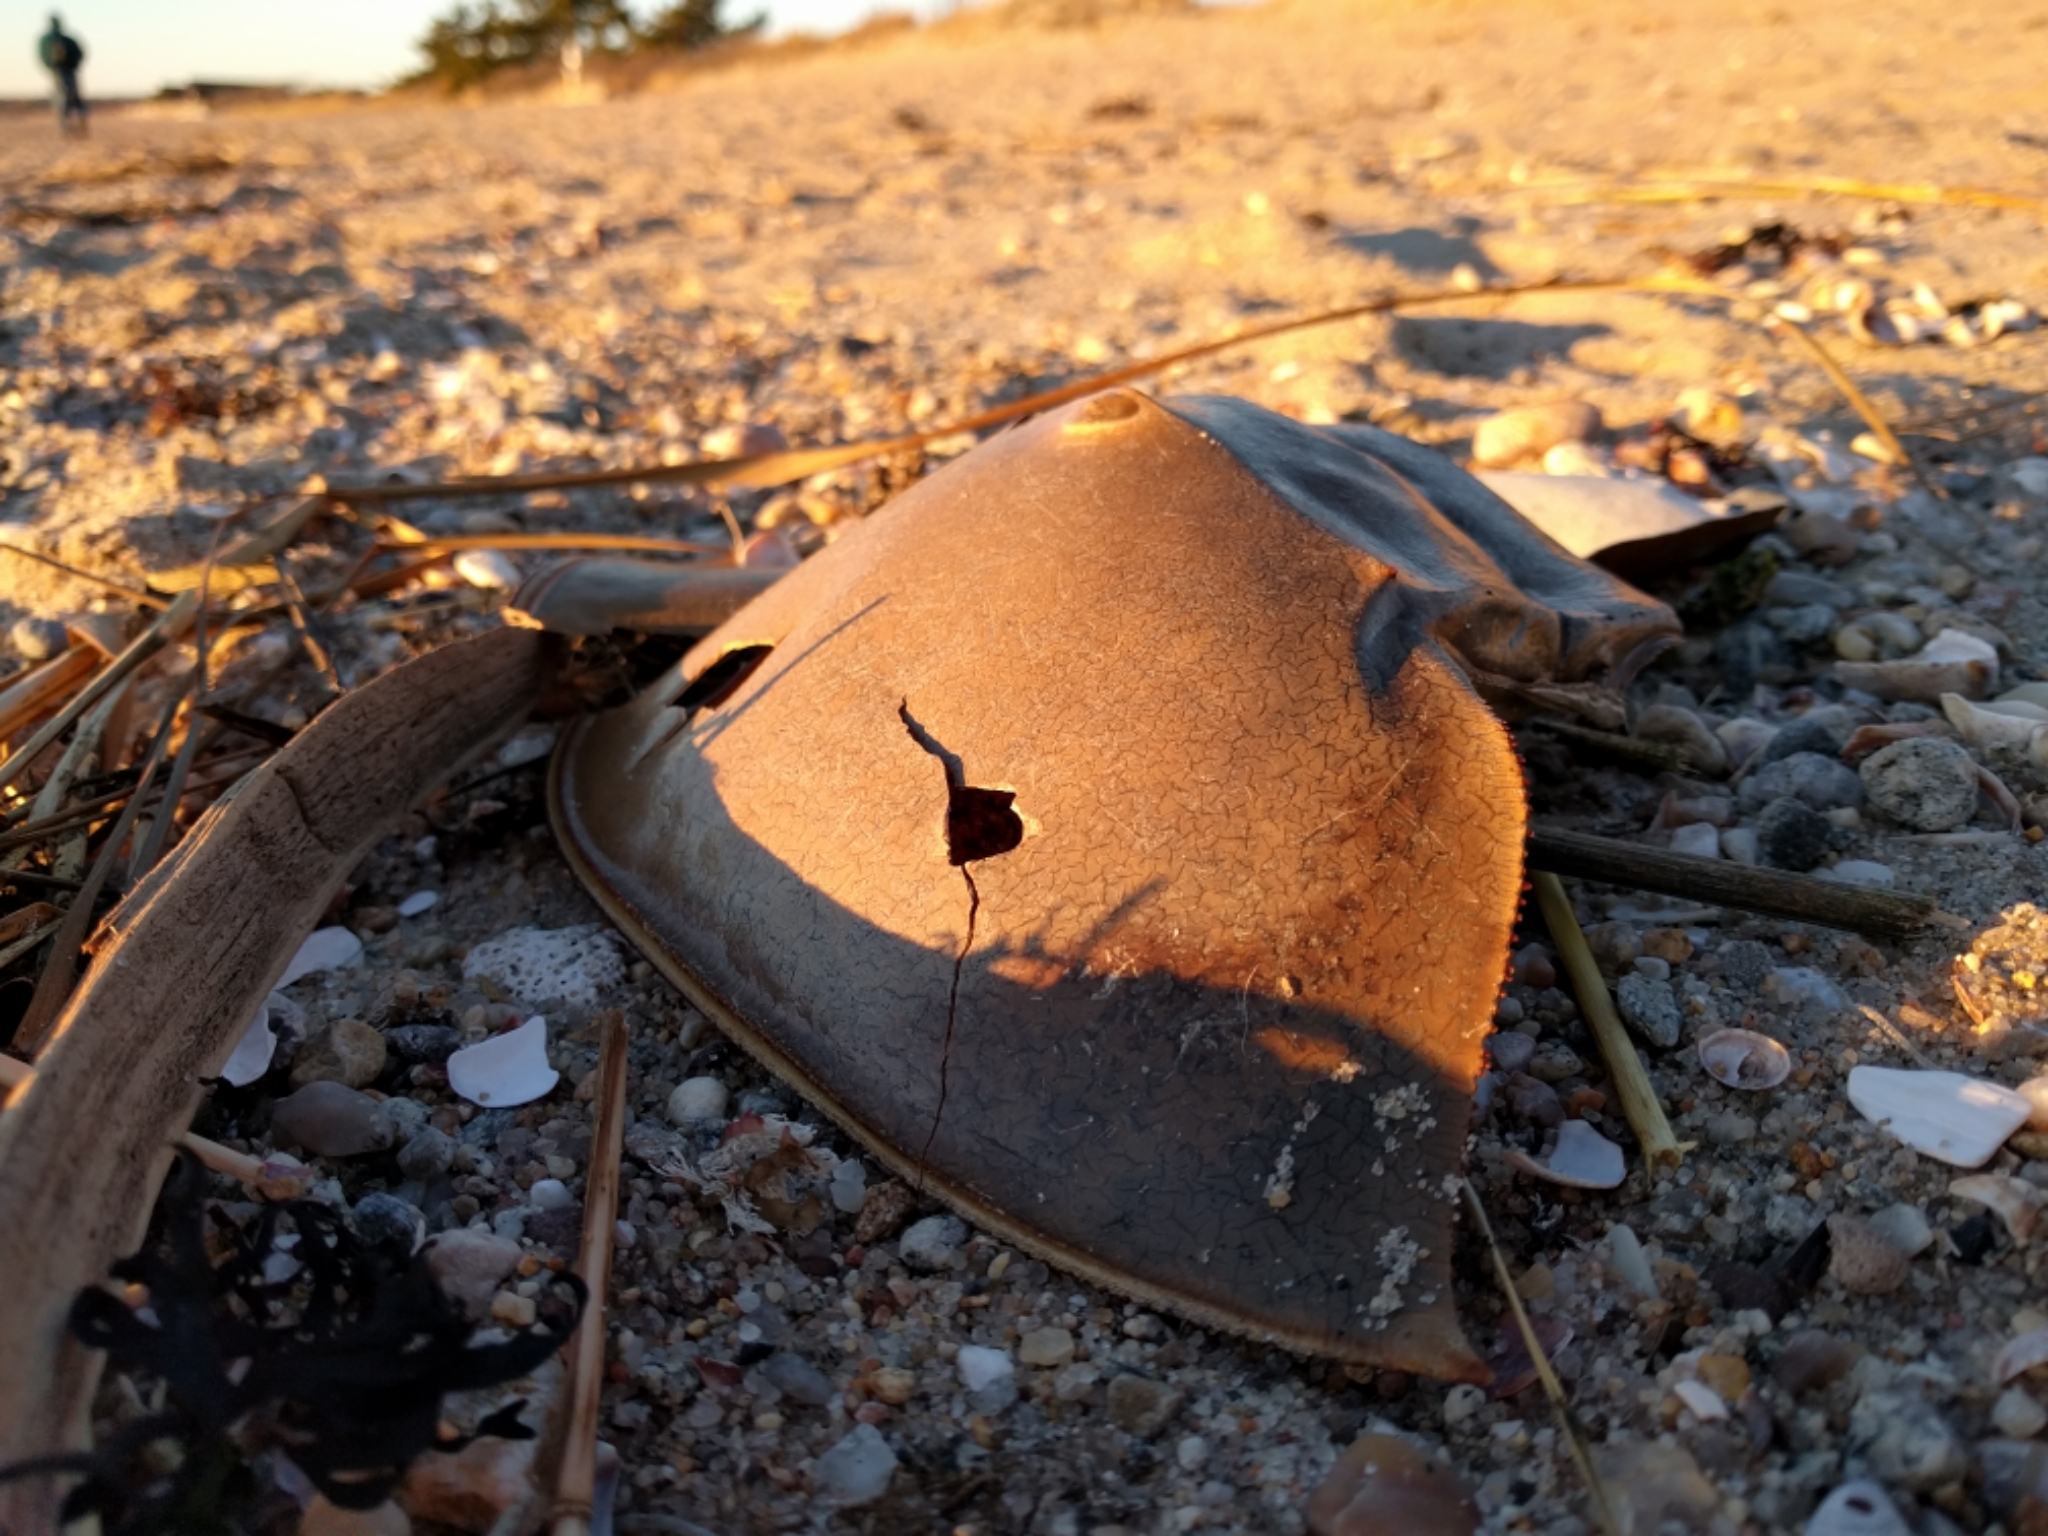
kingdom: Animalia
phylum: Arthropoda
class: Merostomata
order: Xiphosurida
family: Limulidae
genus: Limulus
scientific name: Limulus polyphemus
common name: Horseshoe crab
